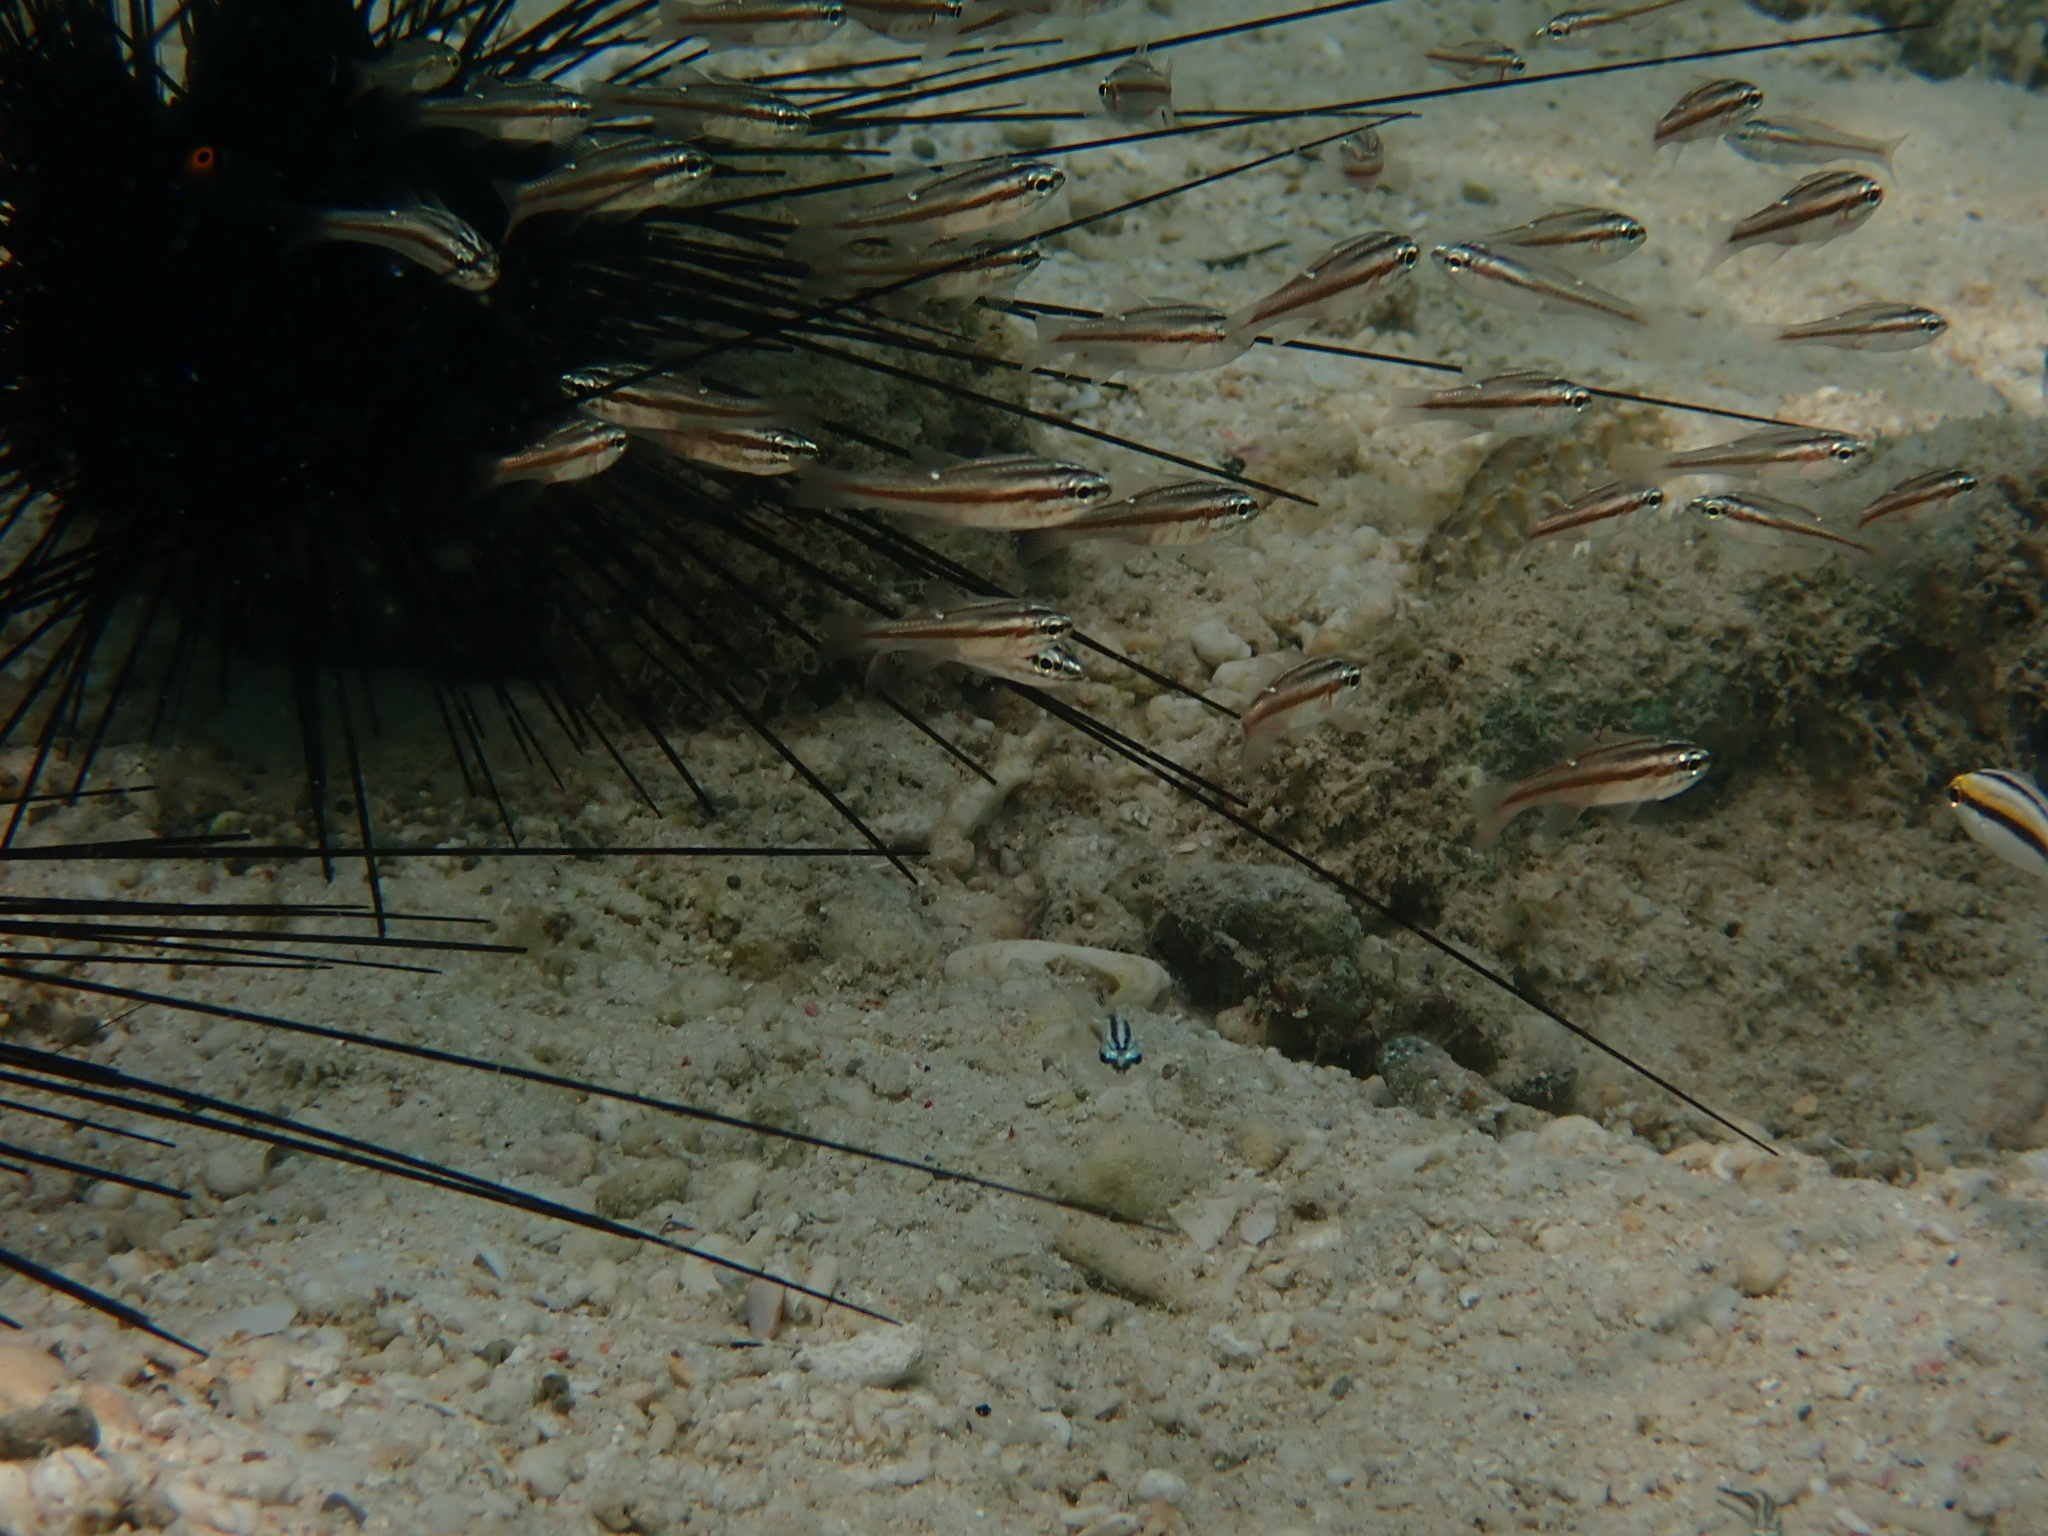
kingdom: Animalia
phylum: Chordata
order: Perciformes
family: Apogonidae
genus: Ostorhinchus
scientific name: Ostorhinchus moluccensis
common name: Moluccan cardinalfish
